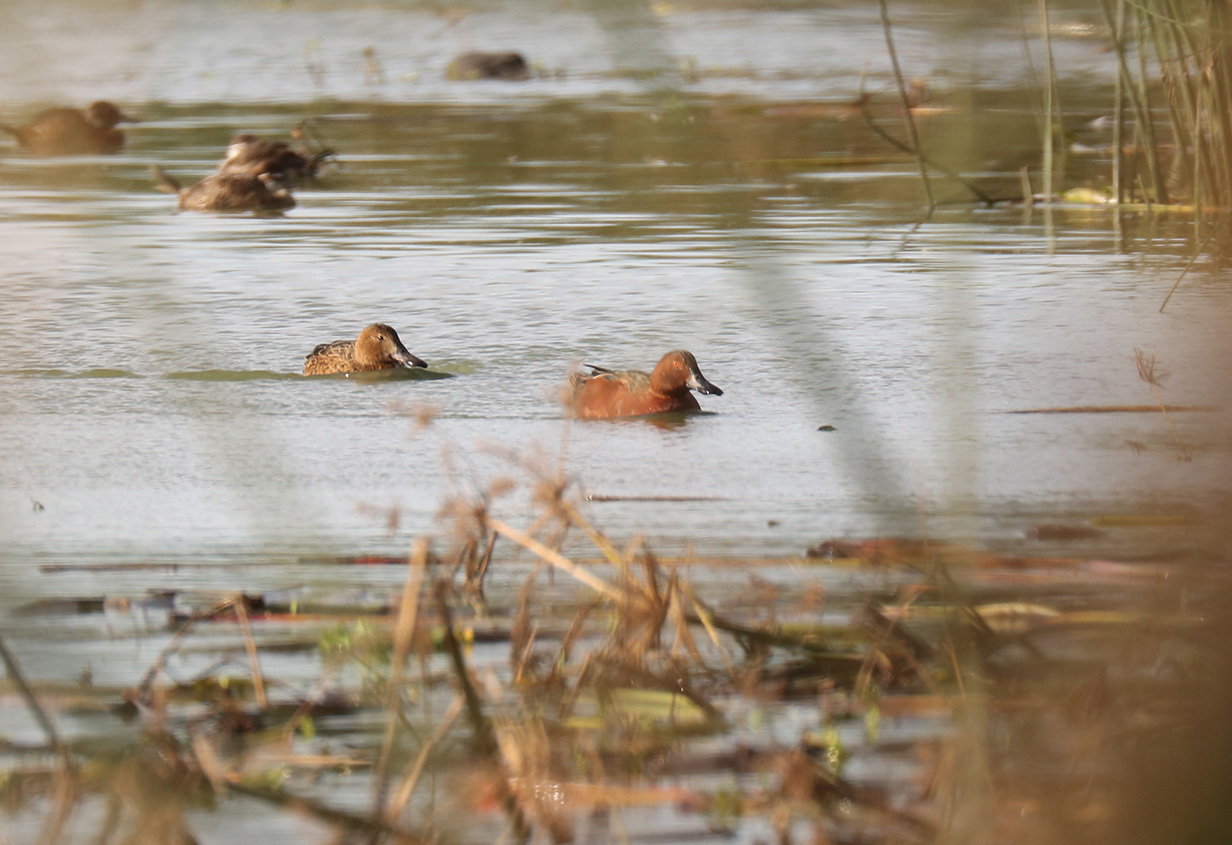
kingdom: Animalia
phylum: Chordata
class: Aves
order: Anseriformes
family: Anatidae
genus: Spatula
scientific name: Spatula cyanoptera
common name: Cinnamon teal
